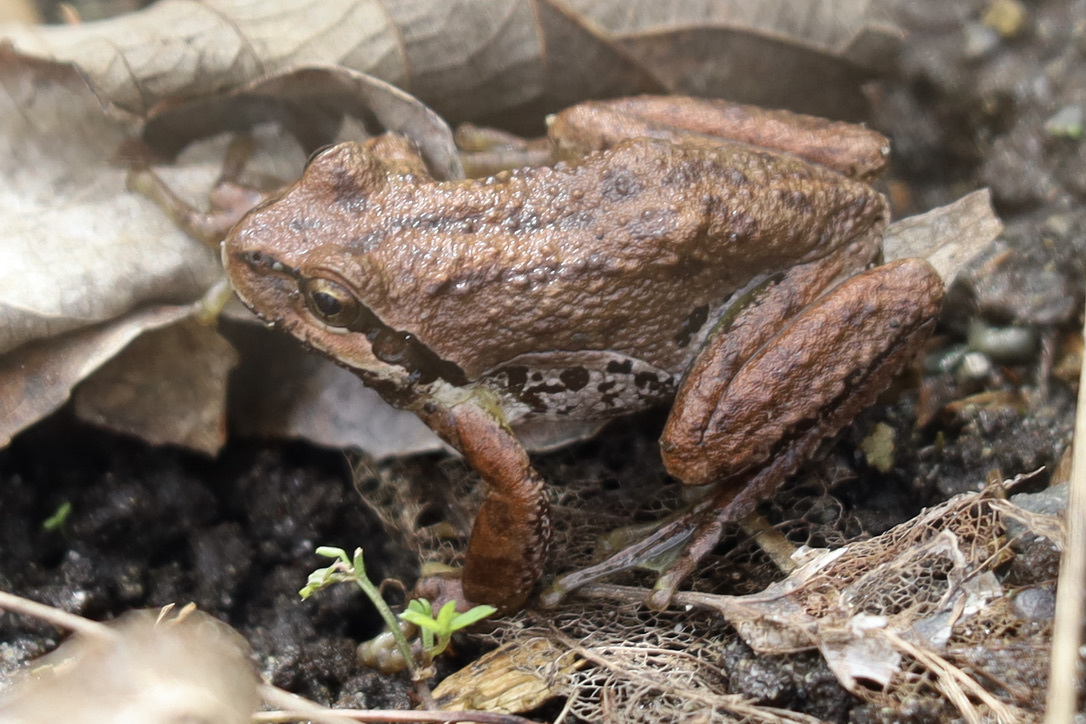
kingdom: Animalia
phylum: Chordata
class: Amphibia
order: Anura
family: Hylidae
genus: Pseudacris
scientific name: Pseudacris regilla
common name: Pacific chorus frog
